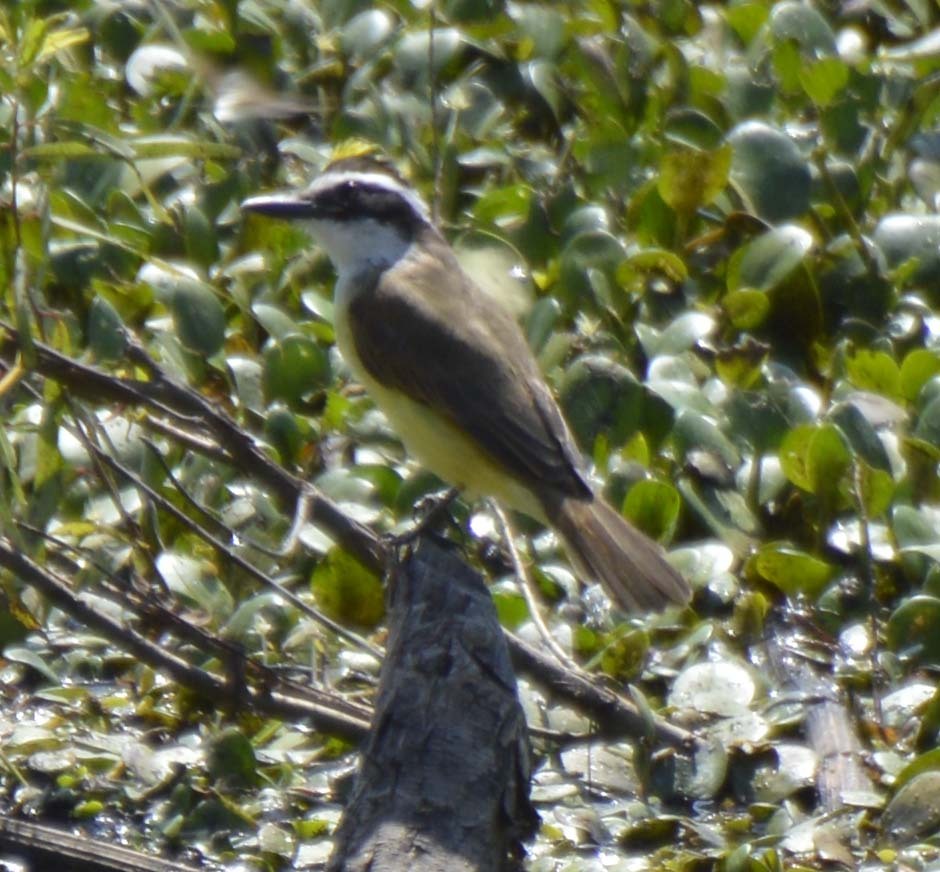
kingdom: Animalia
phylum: Chordata
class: Aves
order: Passeriformes
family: Tyrannidae
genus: Pitangus
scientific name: Pitangus sulphuratus
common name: Great kiskadee
